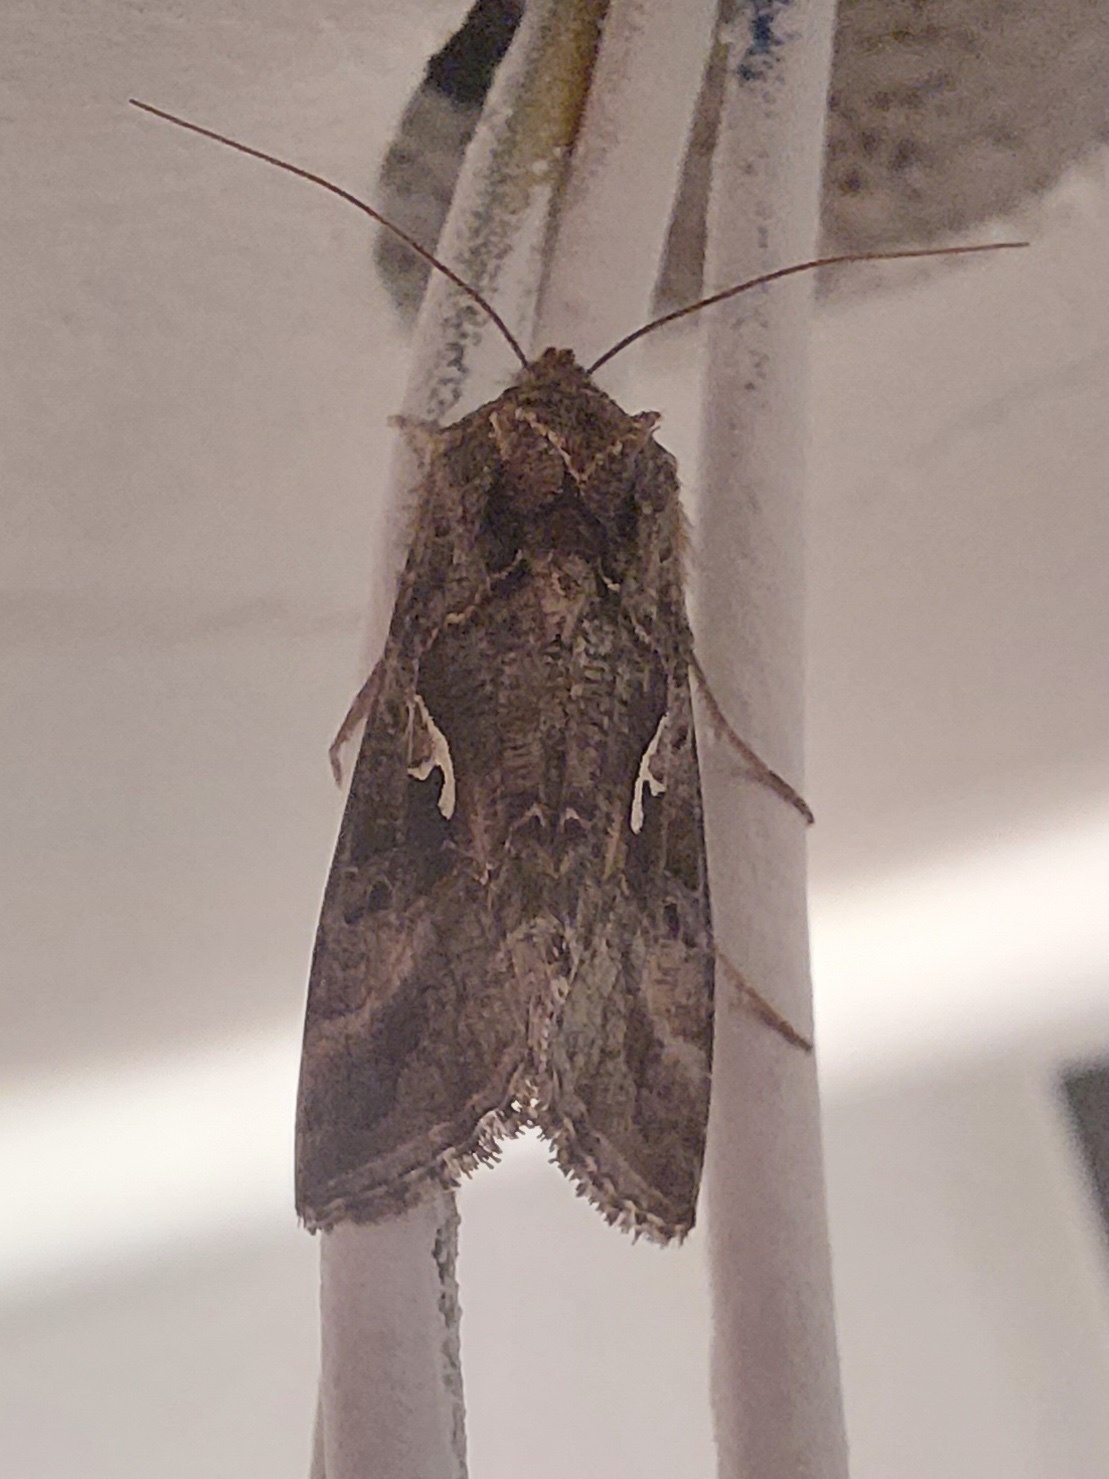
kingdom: Animalia
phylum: Arthropoda
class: Insecta
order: Lepidoptera
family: Noctuidae
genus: Autographa
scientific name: Autographa gamma
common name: Silver y
